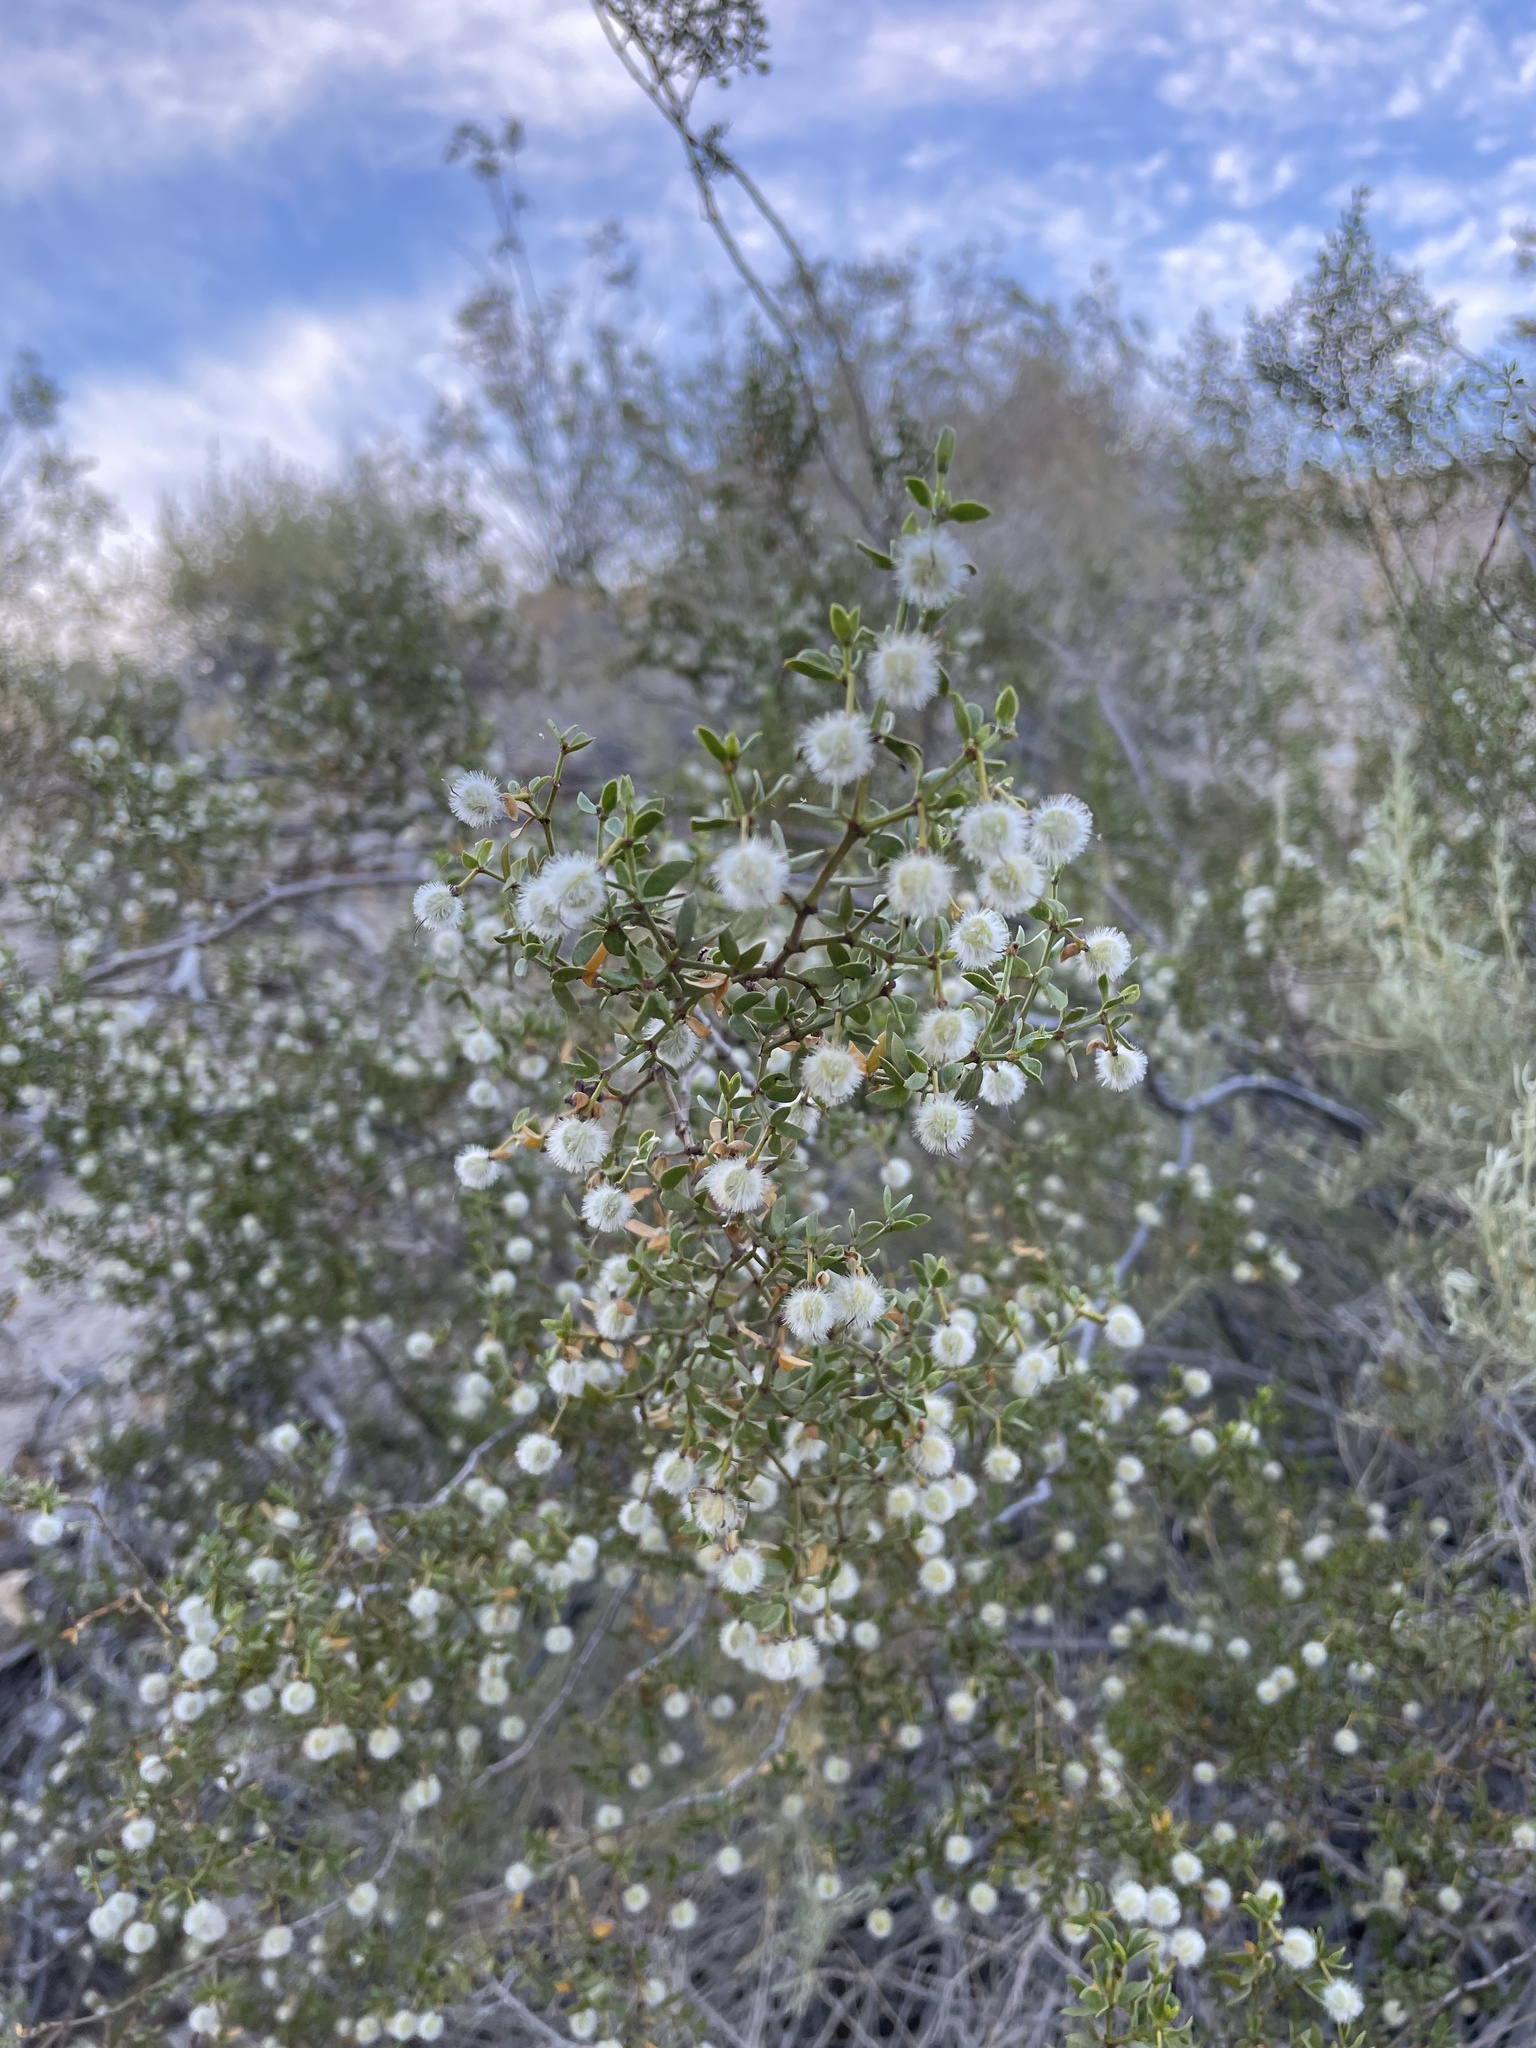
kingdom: Plantae
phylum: Tracheophyta
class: Magnoliopsida
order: Zygophyllales
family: Zygophyllaceae
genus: Larrea
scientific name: Larrea tridentata
